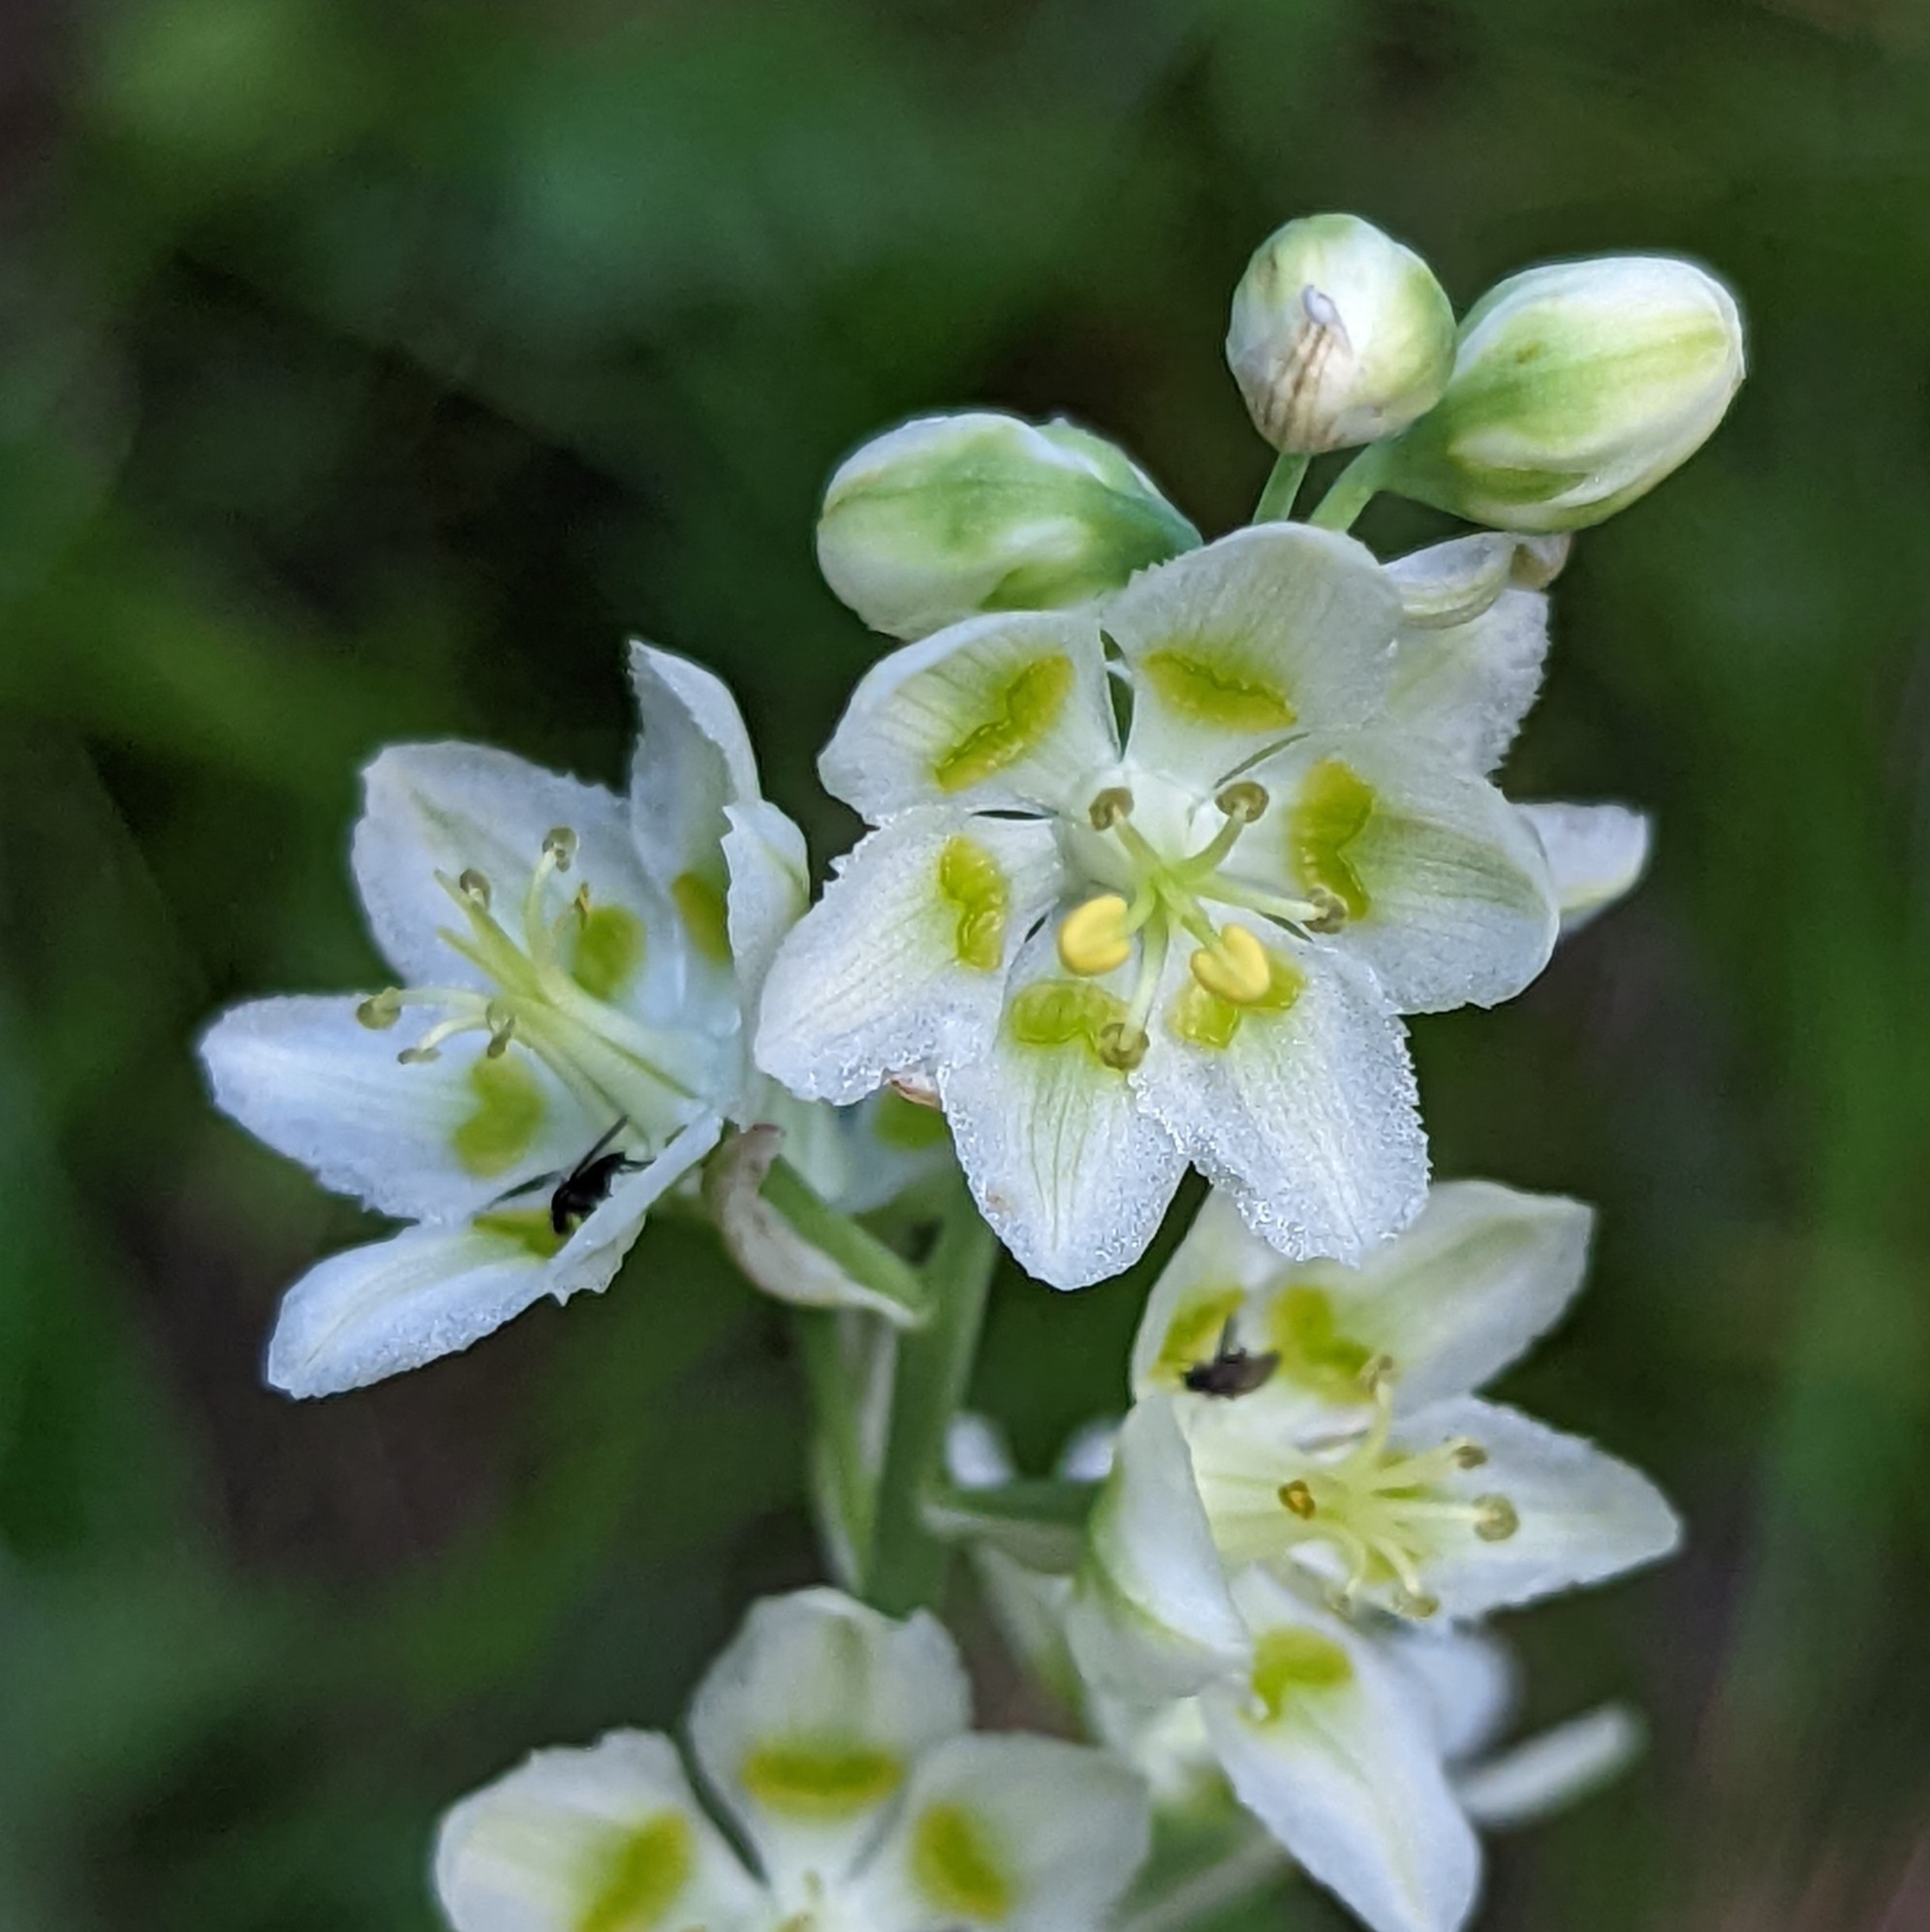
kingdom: Plantae
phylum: Tracheophyta
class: Liliopsida
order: Liliales
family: Melanthiaceae
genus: Anticlea
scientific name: Anticlea elegans
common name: Mountain death camas
